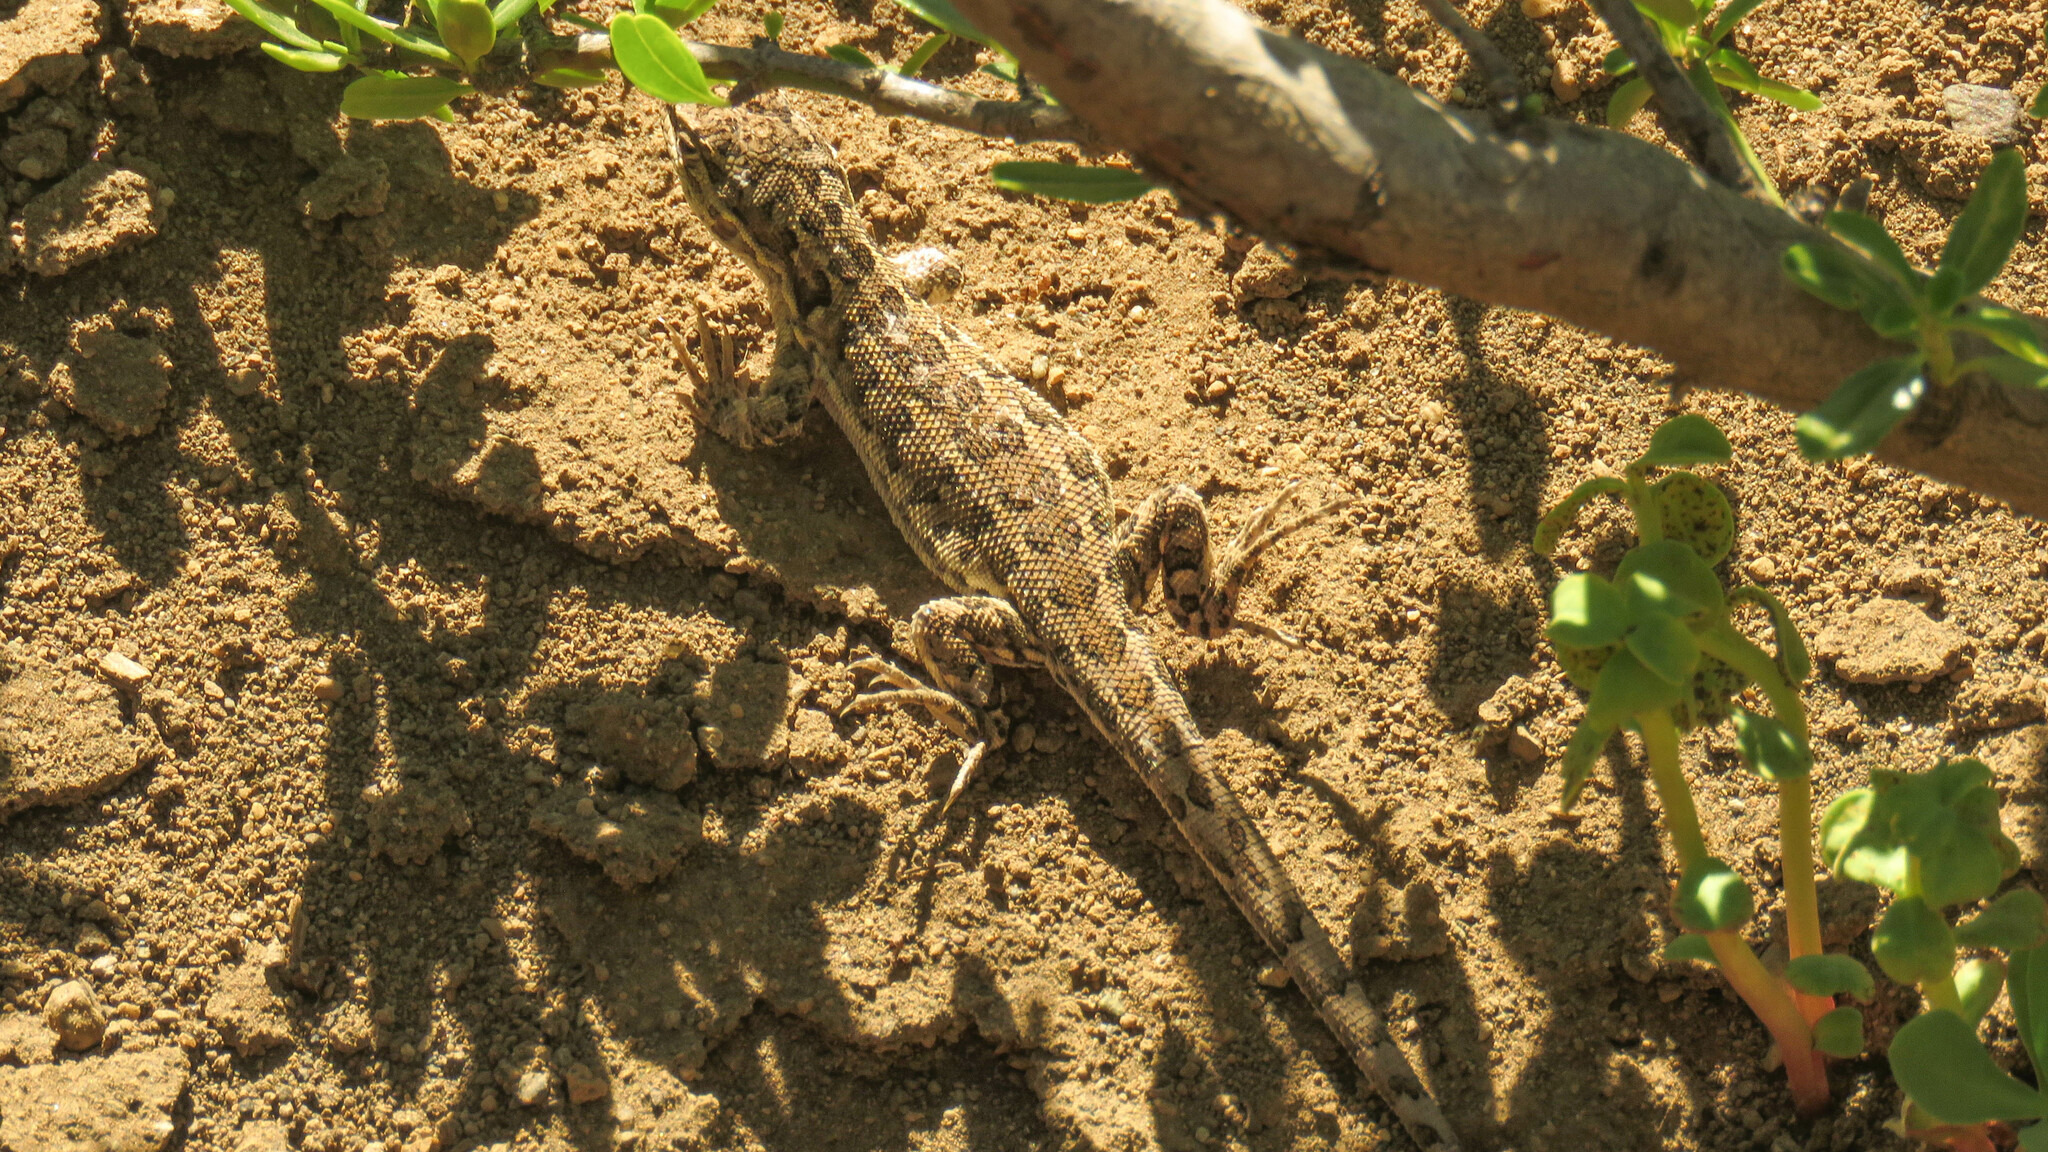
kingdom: Animalia
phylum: Chordata
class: Squamata
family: Liolaemidae
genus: Liolaemus
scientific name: Liolaemus rothi
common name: Roth's sand iguana
